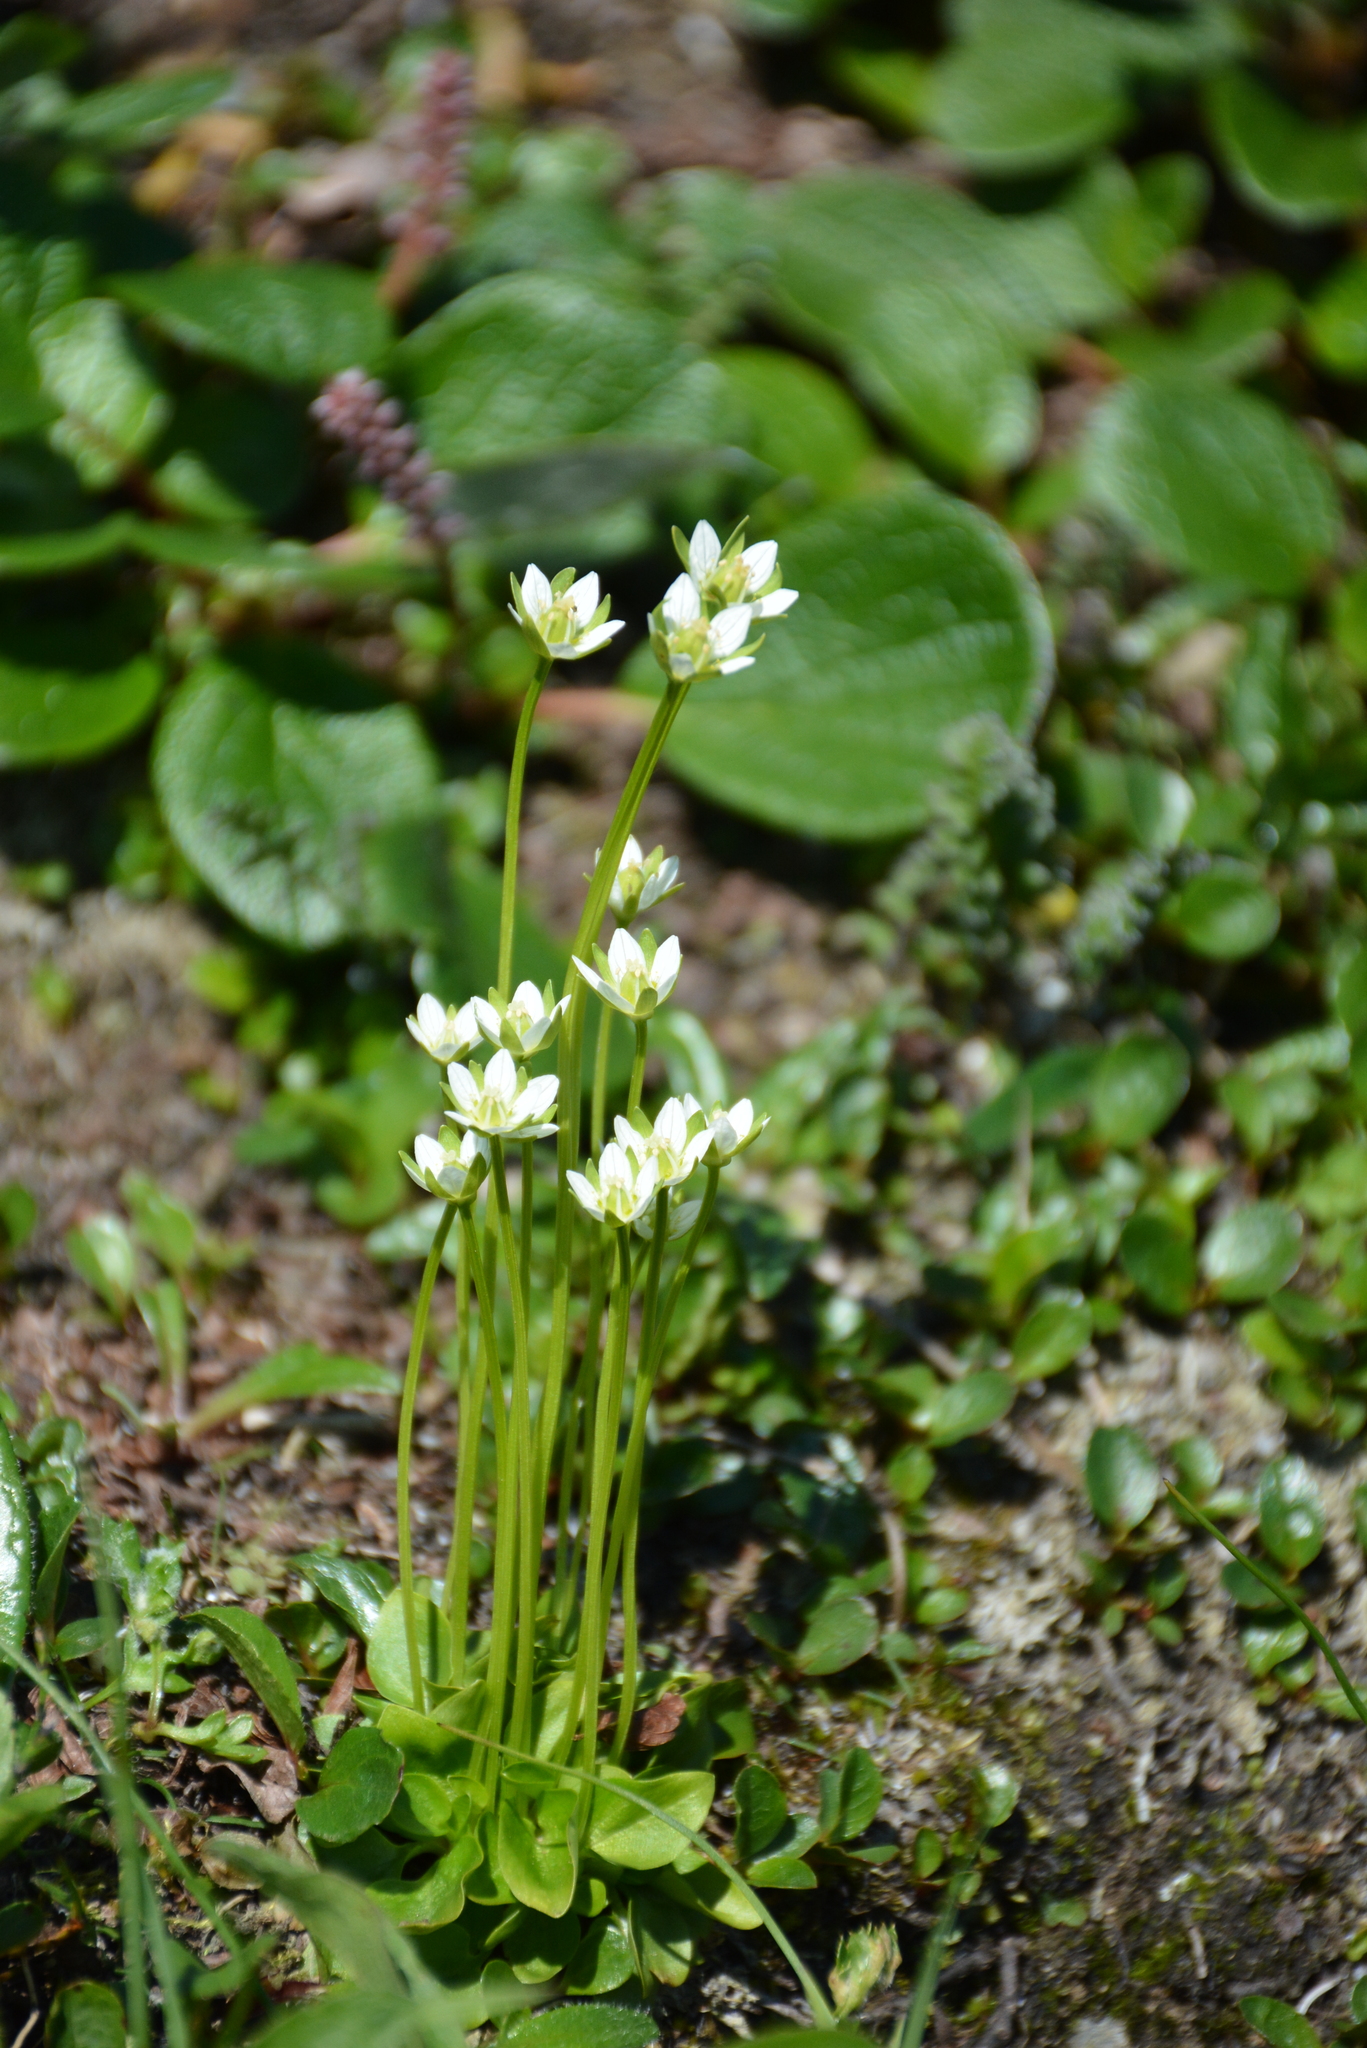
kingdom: Plantae
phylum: Tracheophyta
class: Magnoliopsida
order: Celastrales
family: Parnassiaceae
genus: Parnassia
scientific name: Parnassia kotzebuei
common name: Kotzebue's grass-of-parnassus
